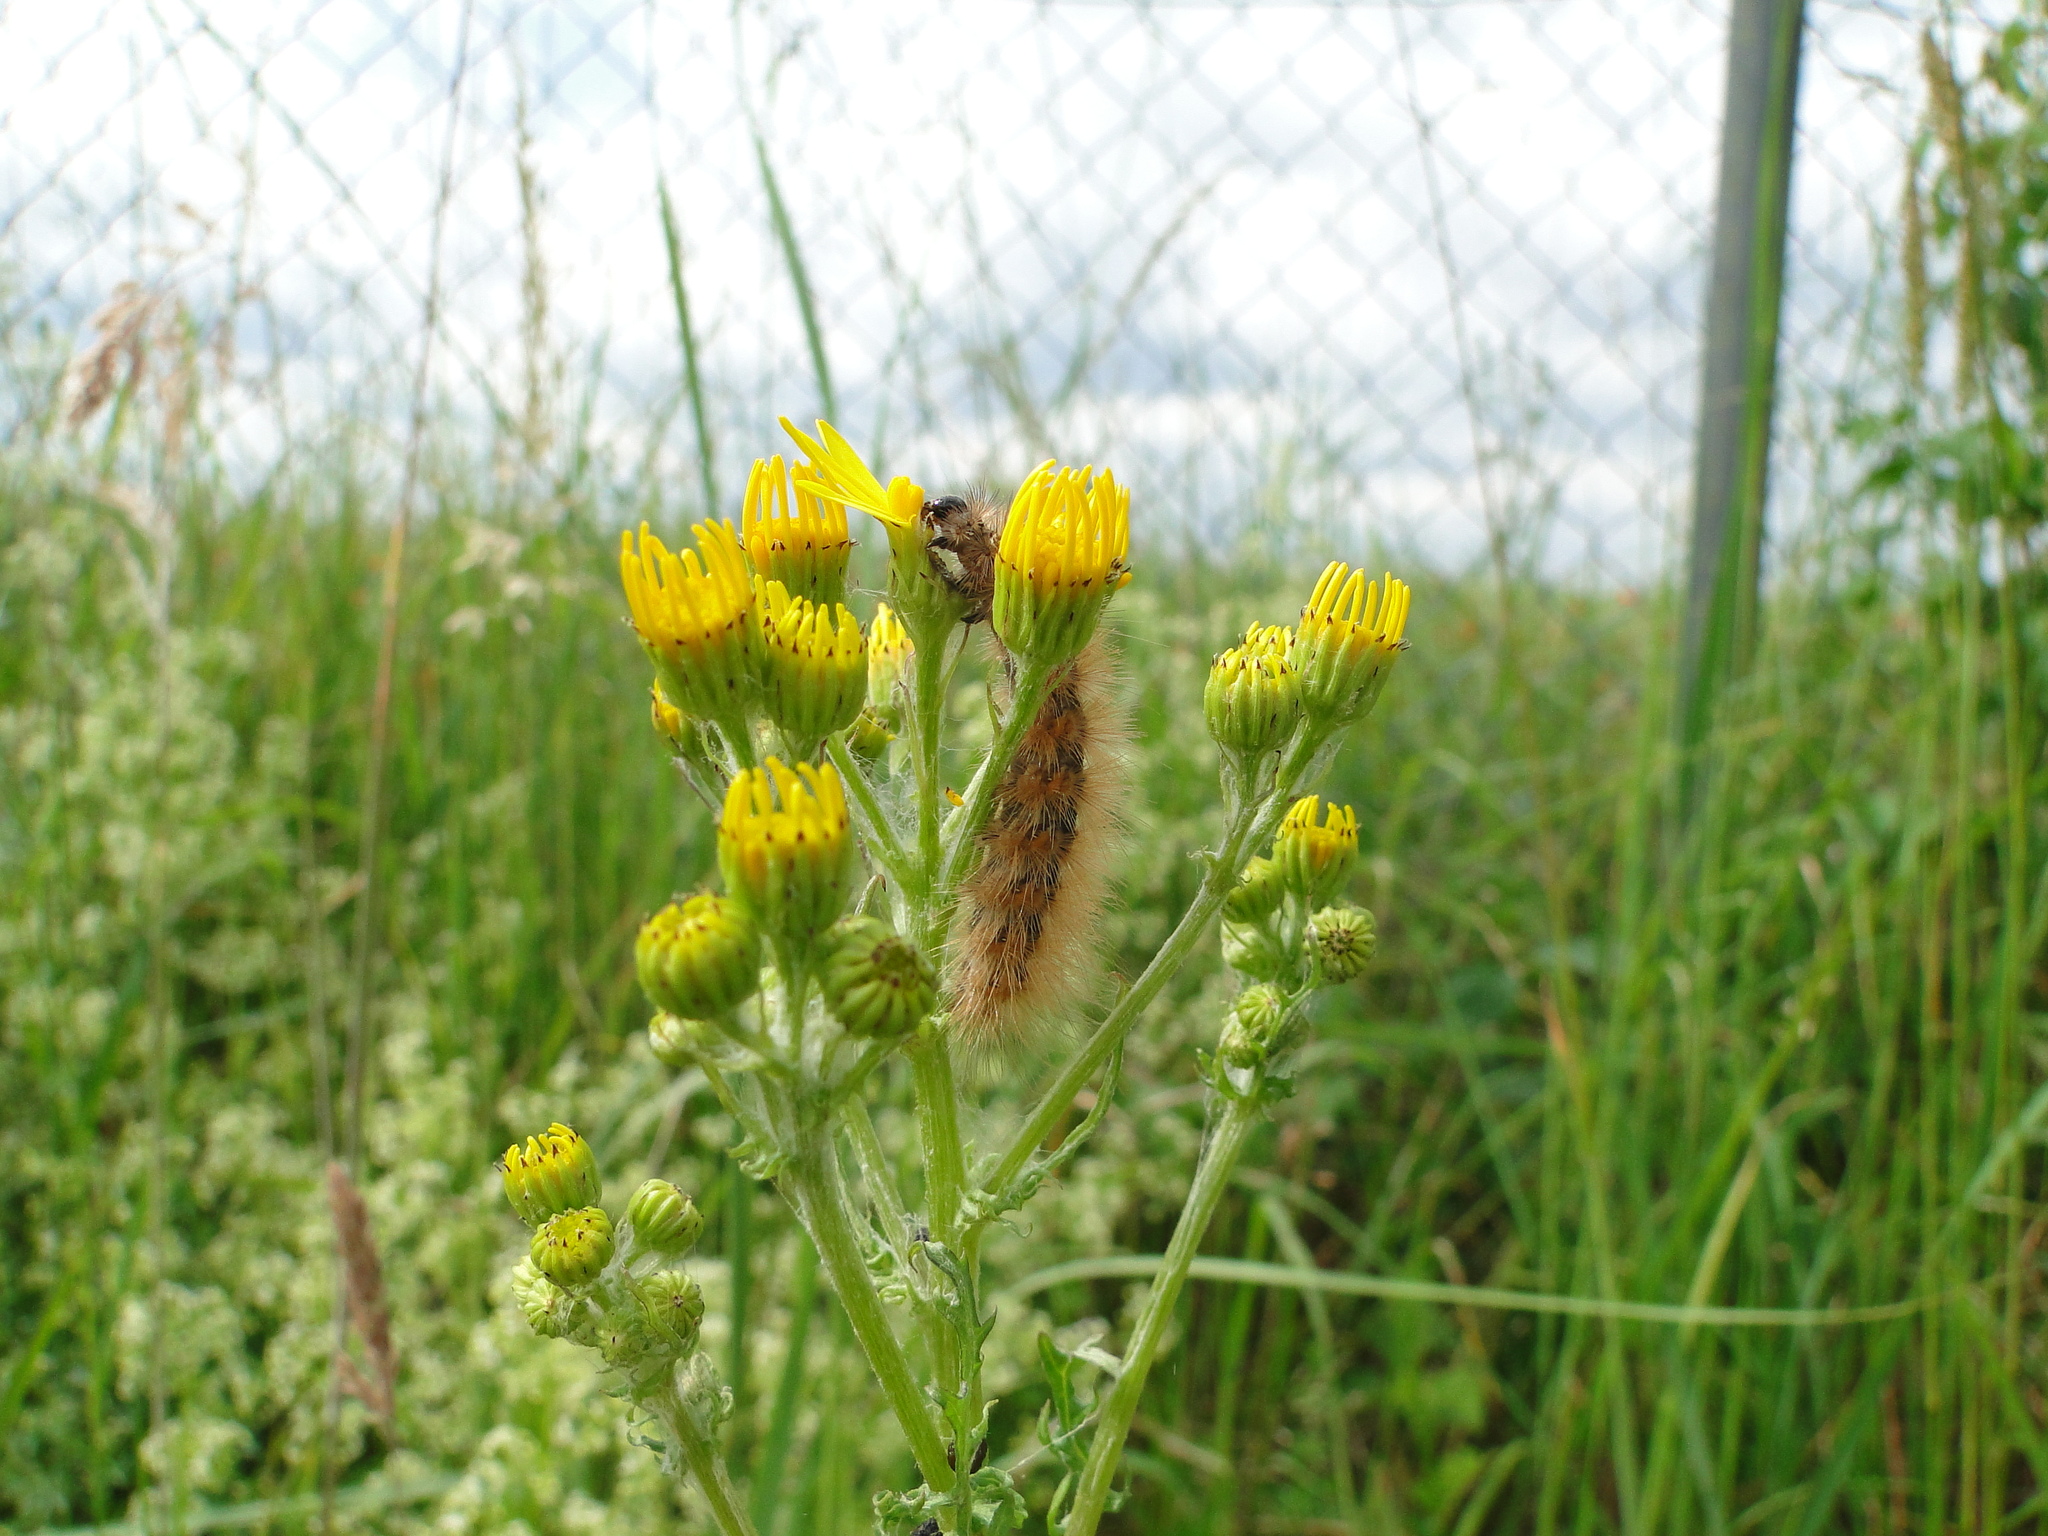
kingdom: Animalia
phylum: Arthropoda
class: Insecta
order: Lepidoptera
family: Erebidae
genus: Phragmatobia
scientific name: Phragmatobia fuliginosa
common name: Ruby tiger
